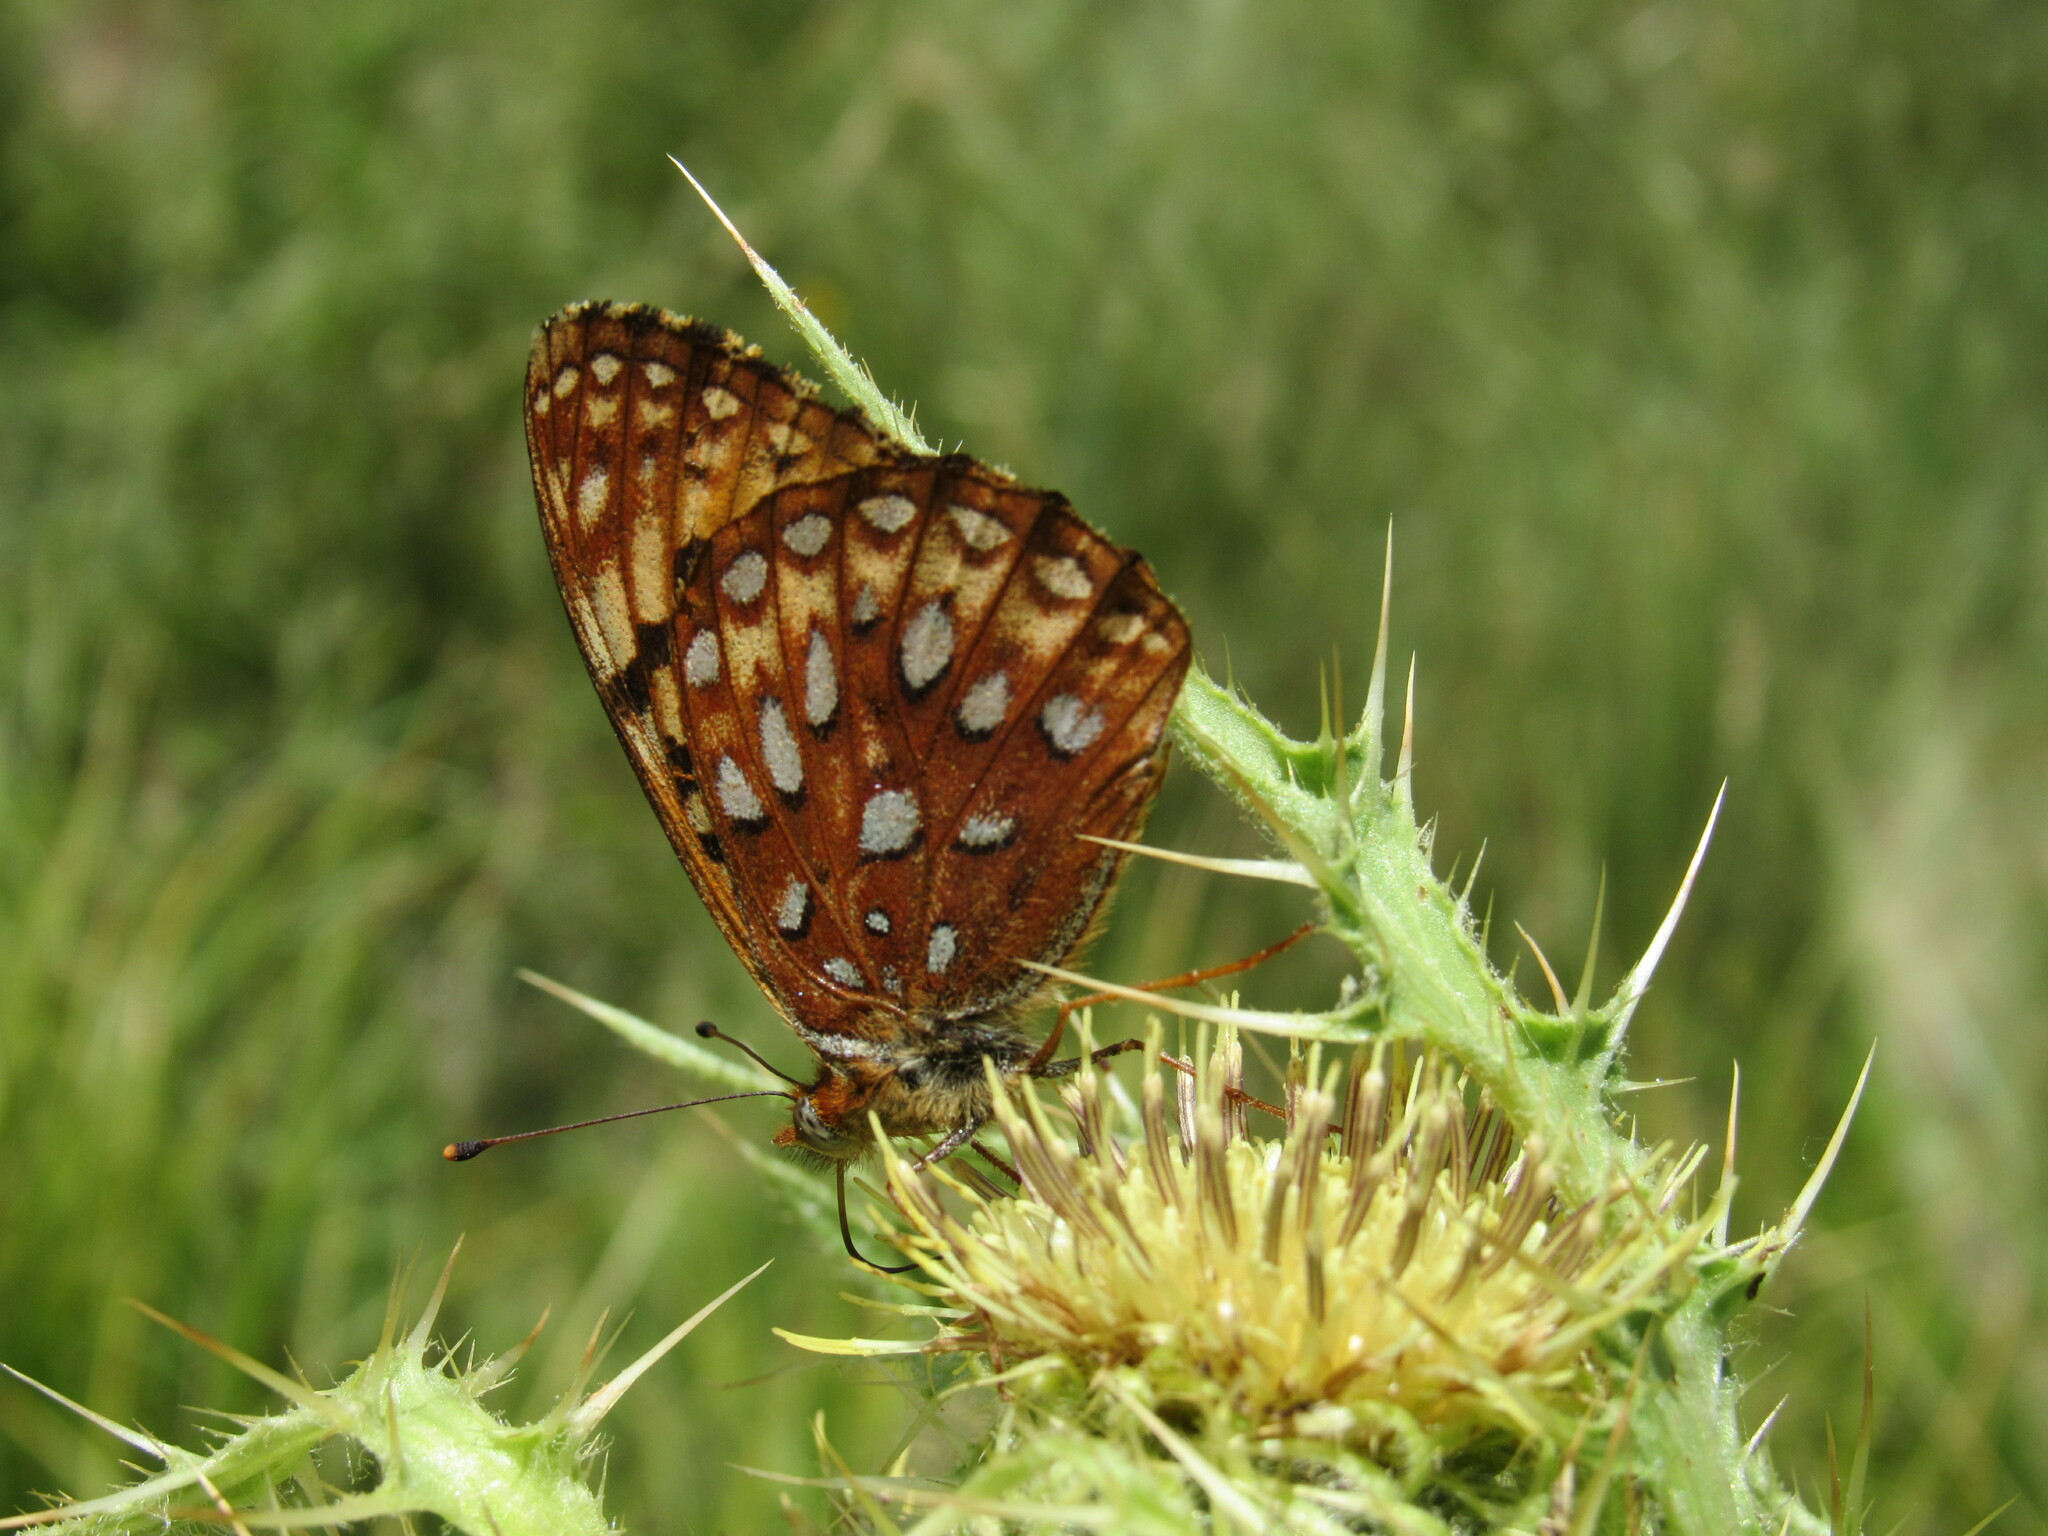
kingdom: Animalia
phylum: Arthropoda
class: Insecta
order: Lepidoptera
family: Nymphalidae
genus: Speyeria
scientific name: Speyeria atlantis
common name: Atlantis fritillary
